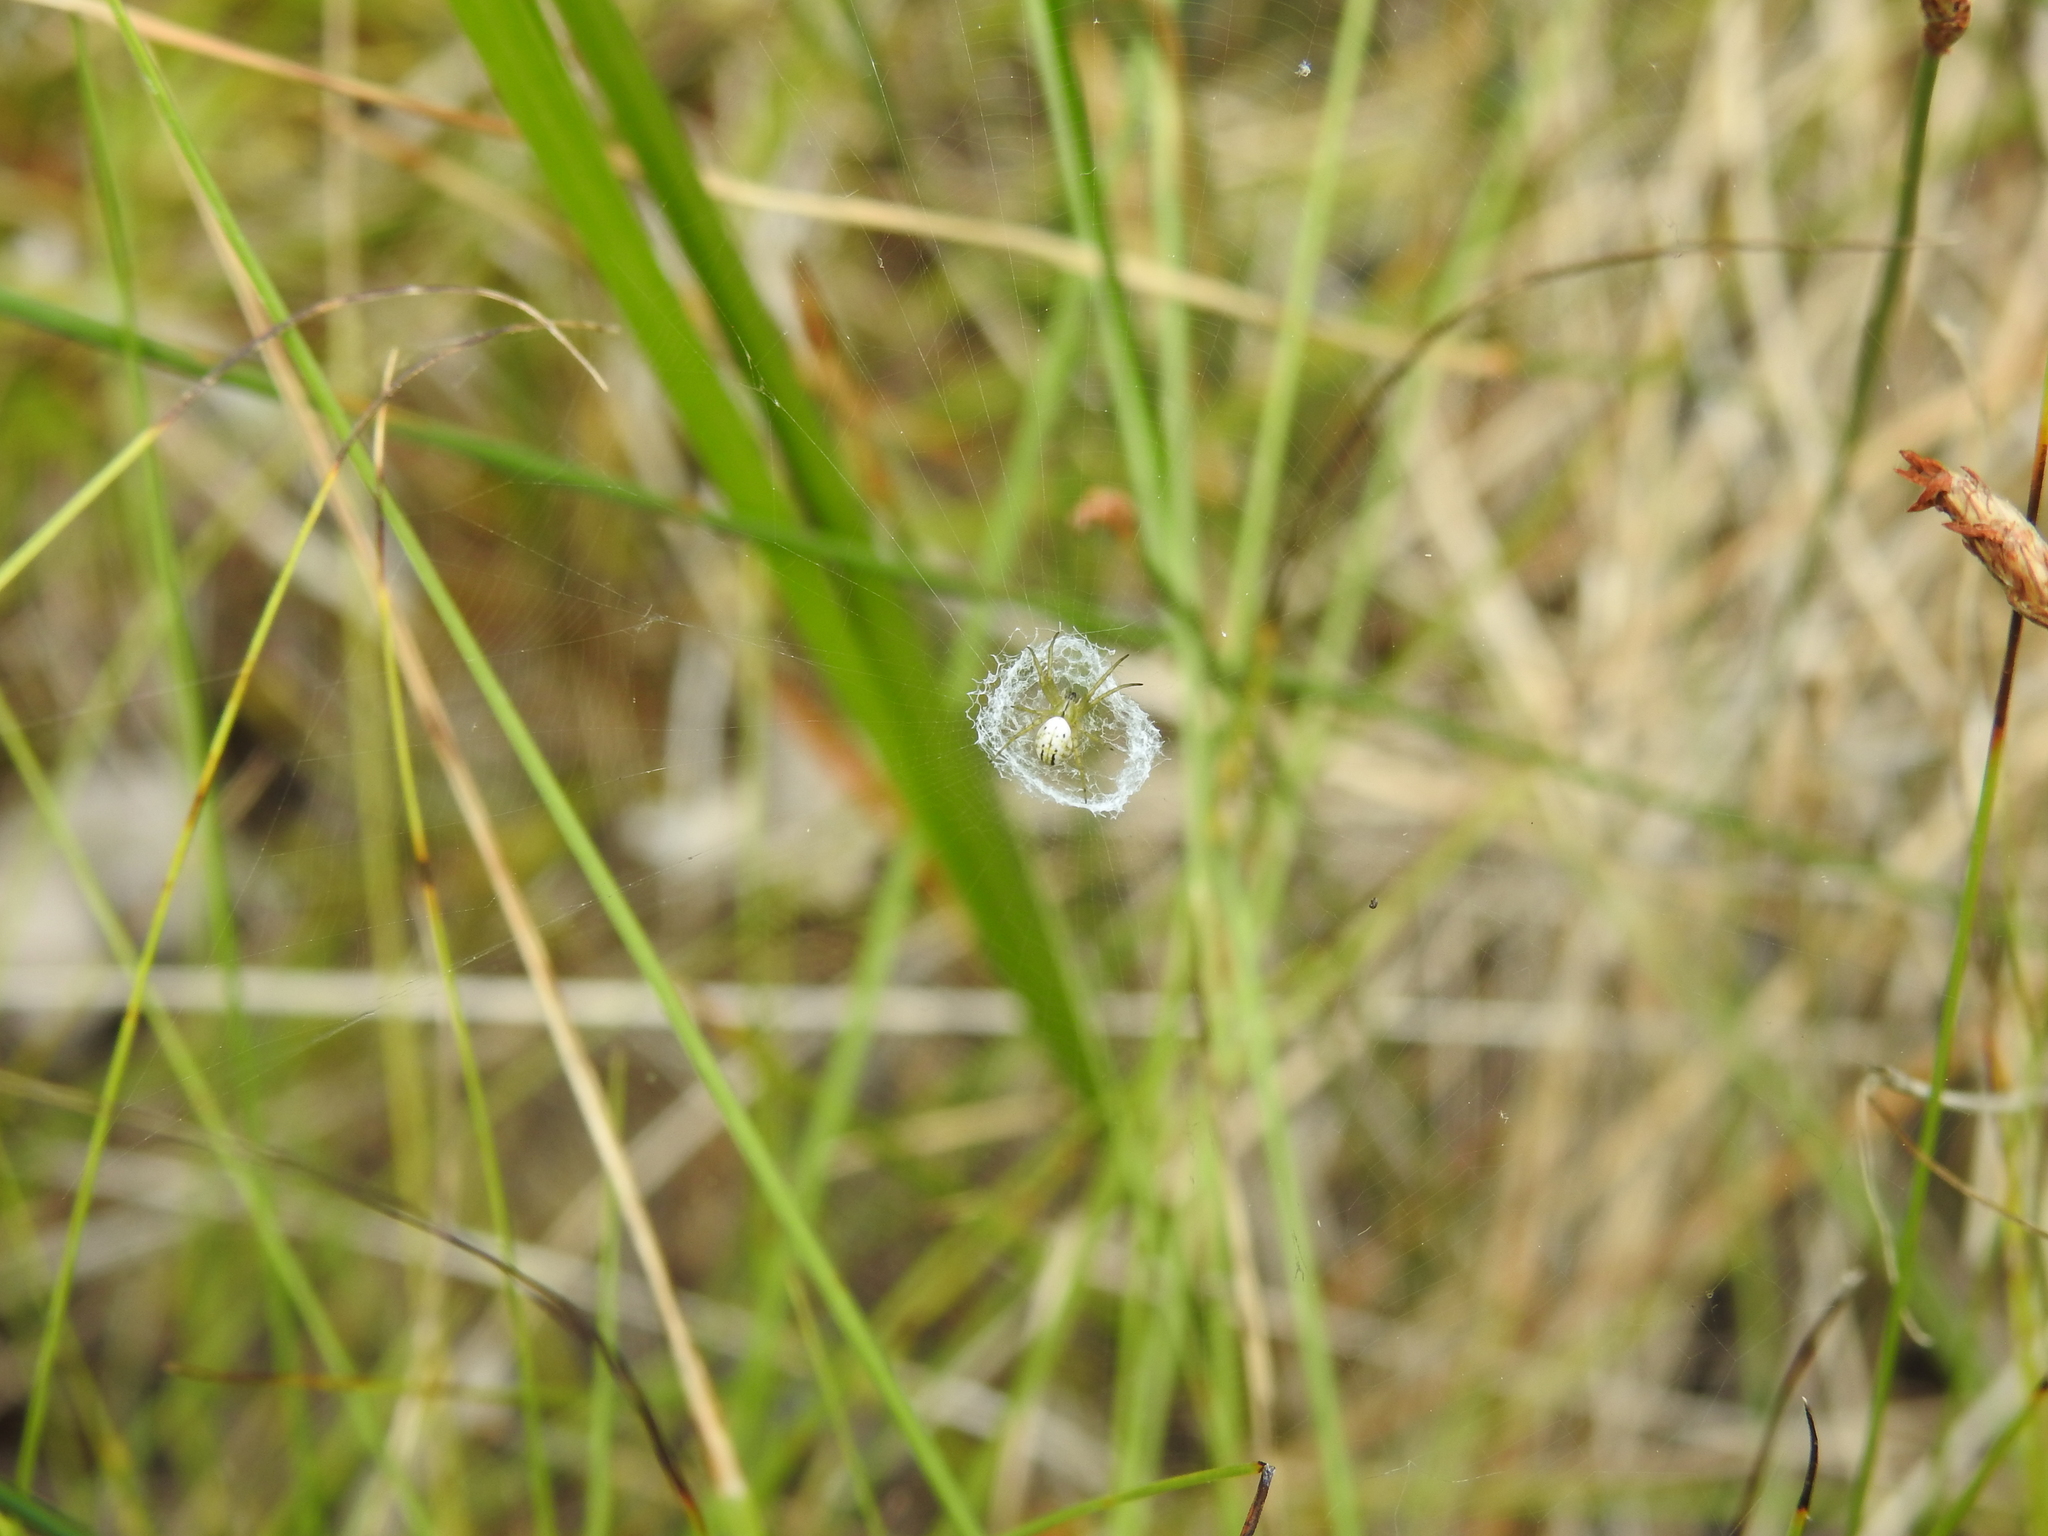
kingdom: Animalia
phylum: Arthropoda
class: Arachnida
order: Araneae
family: Araneidae
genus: Mangora
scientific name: Mangora gibberosa
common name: Lined orbweaver
